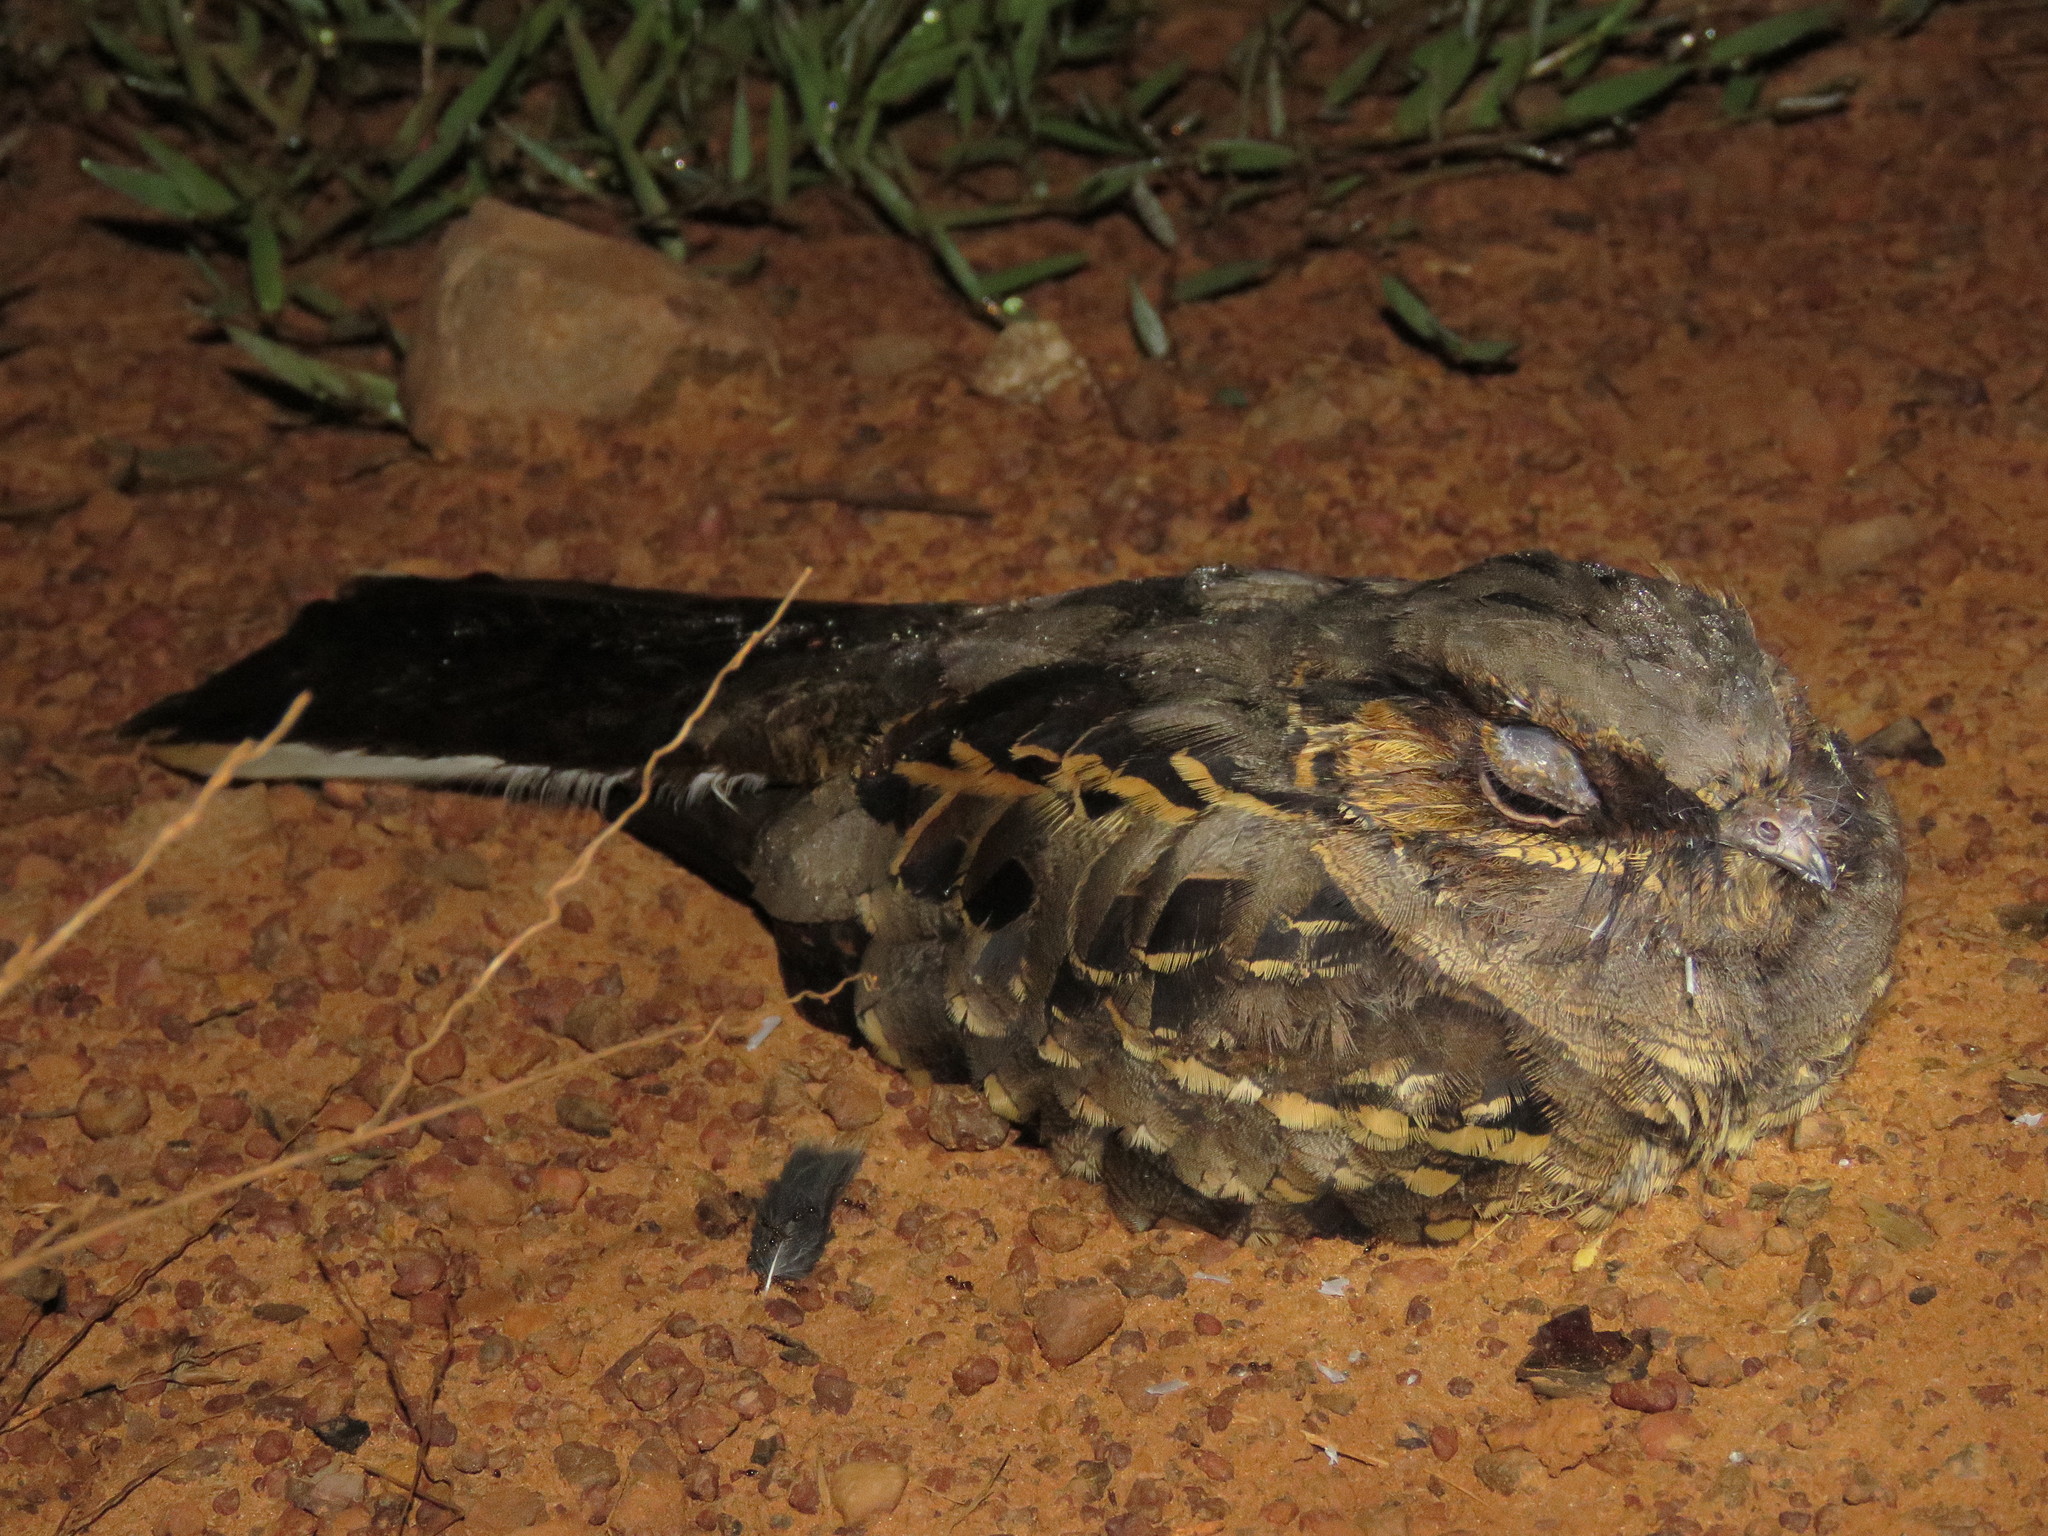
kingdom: Animalia
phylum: Chordata
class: Aves
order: Caprimulgiformes
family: Caprimulgidae
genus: Nyctidromus
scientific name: Nyctidromus albicollis
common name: Pauraque
